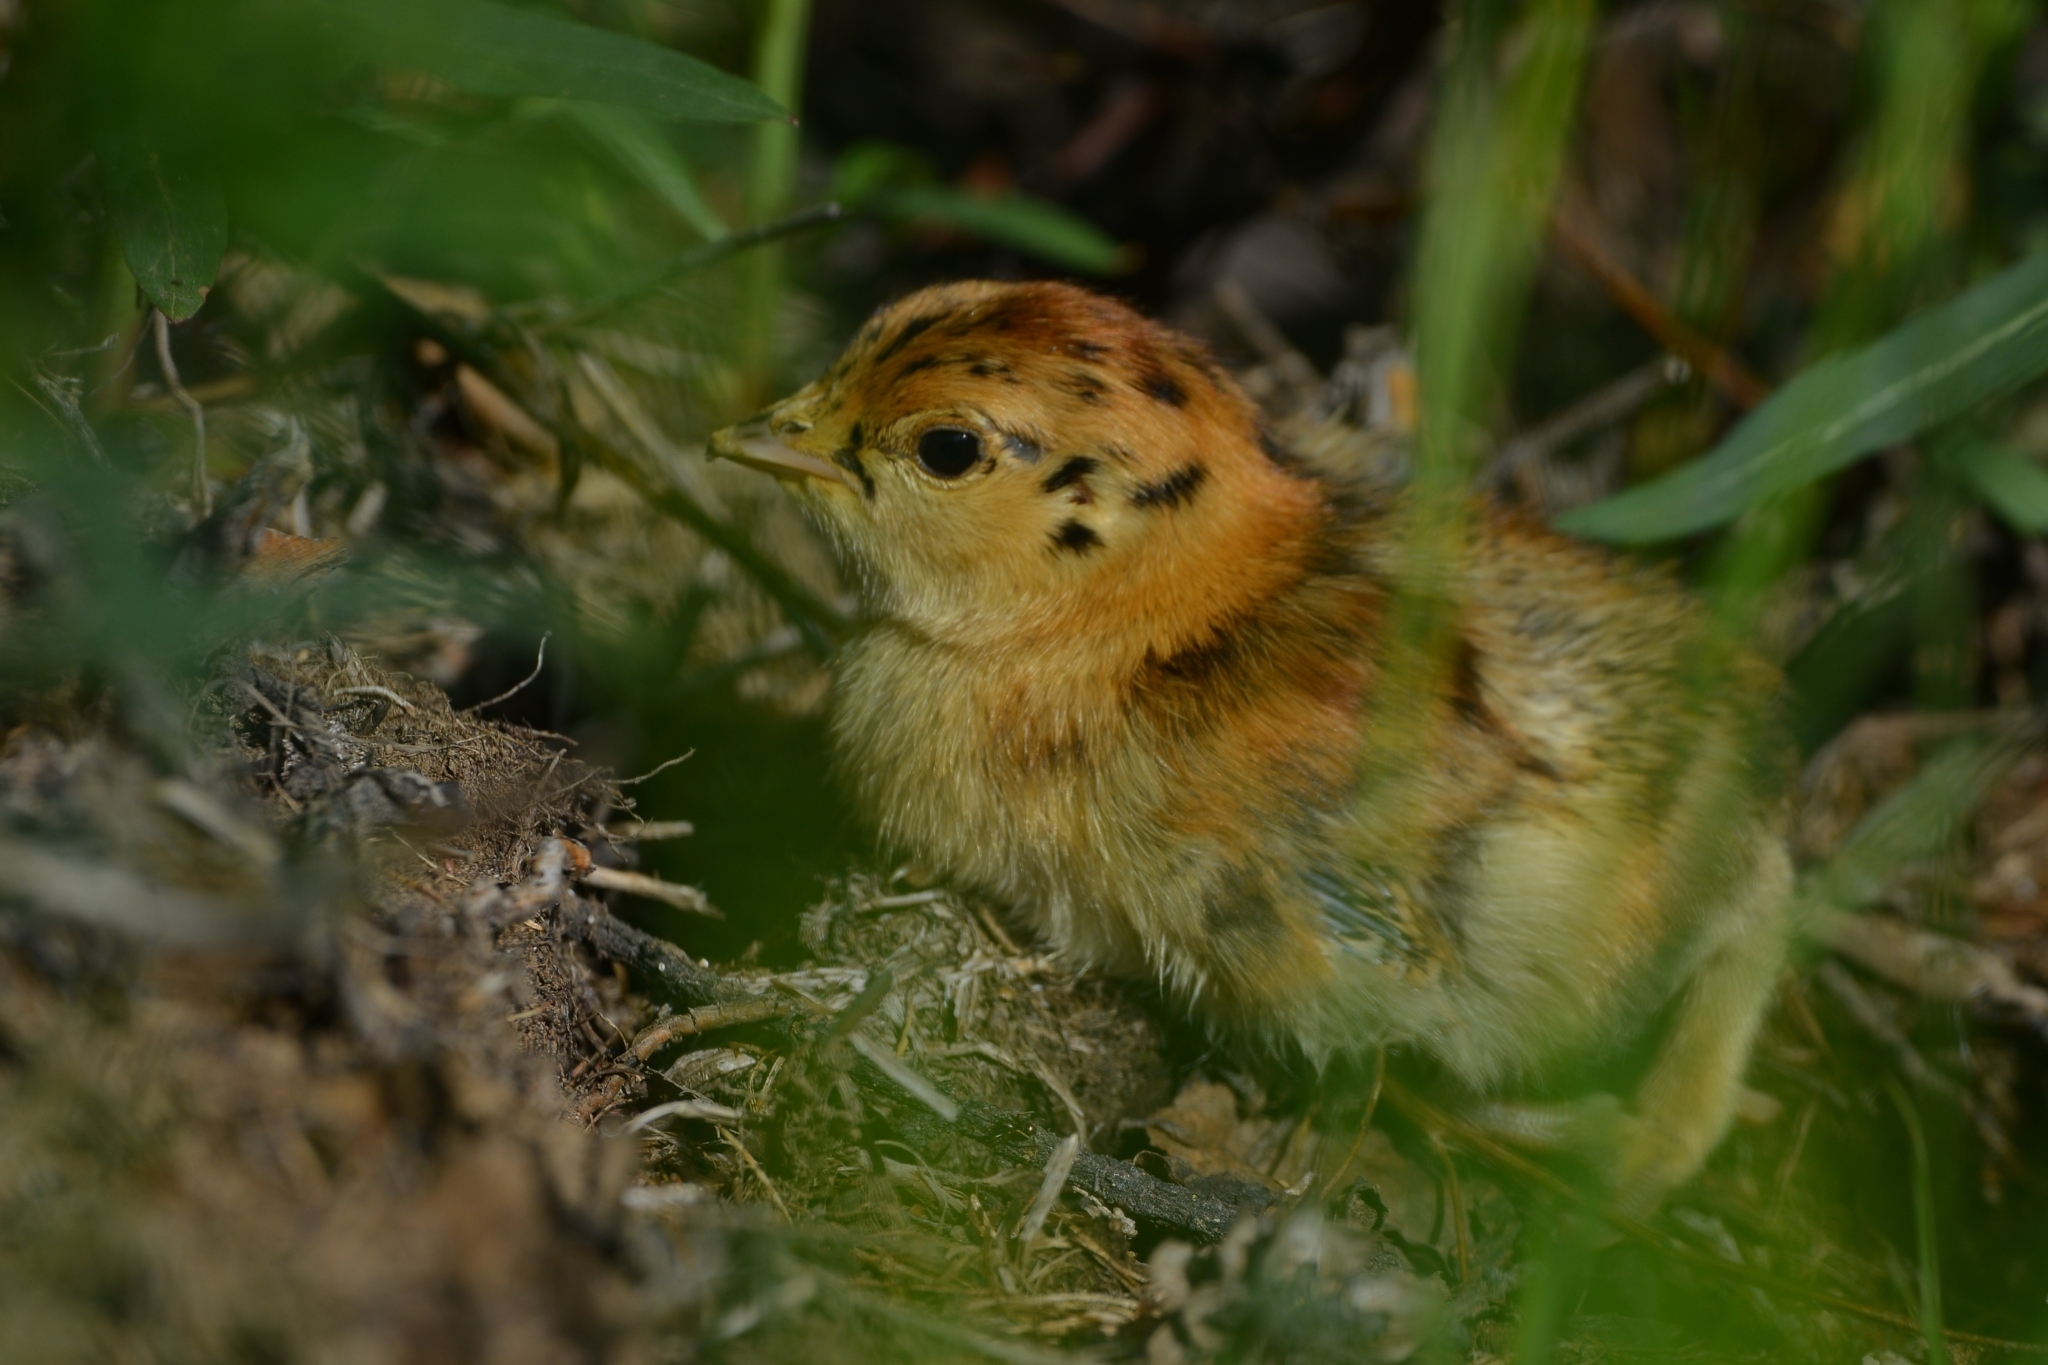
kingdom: Animalia
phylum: Chordata
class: Aves
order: Galliformes
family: Phasianidae
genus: Tetrao
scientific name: Tetrao urogalloides
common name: Black-billed capercaillie
